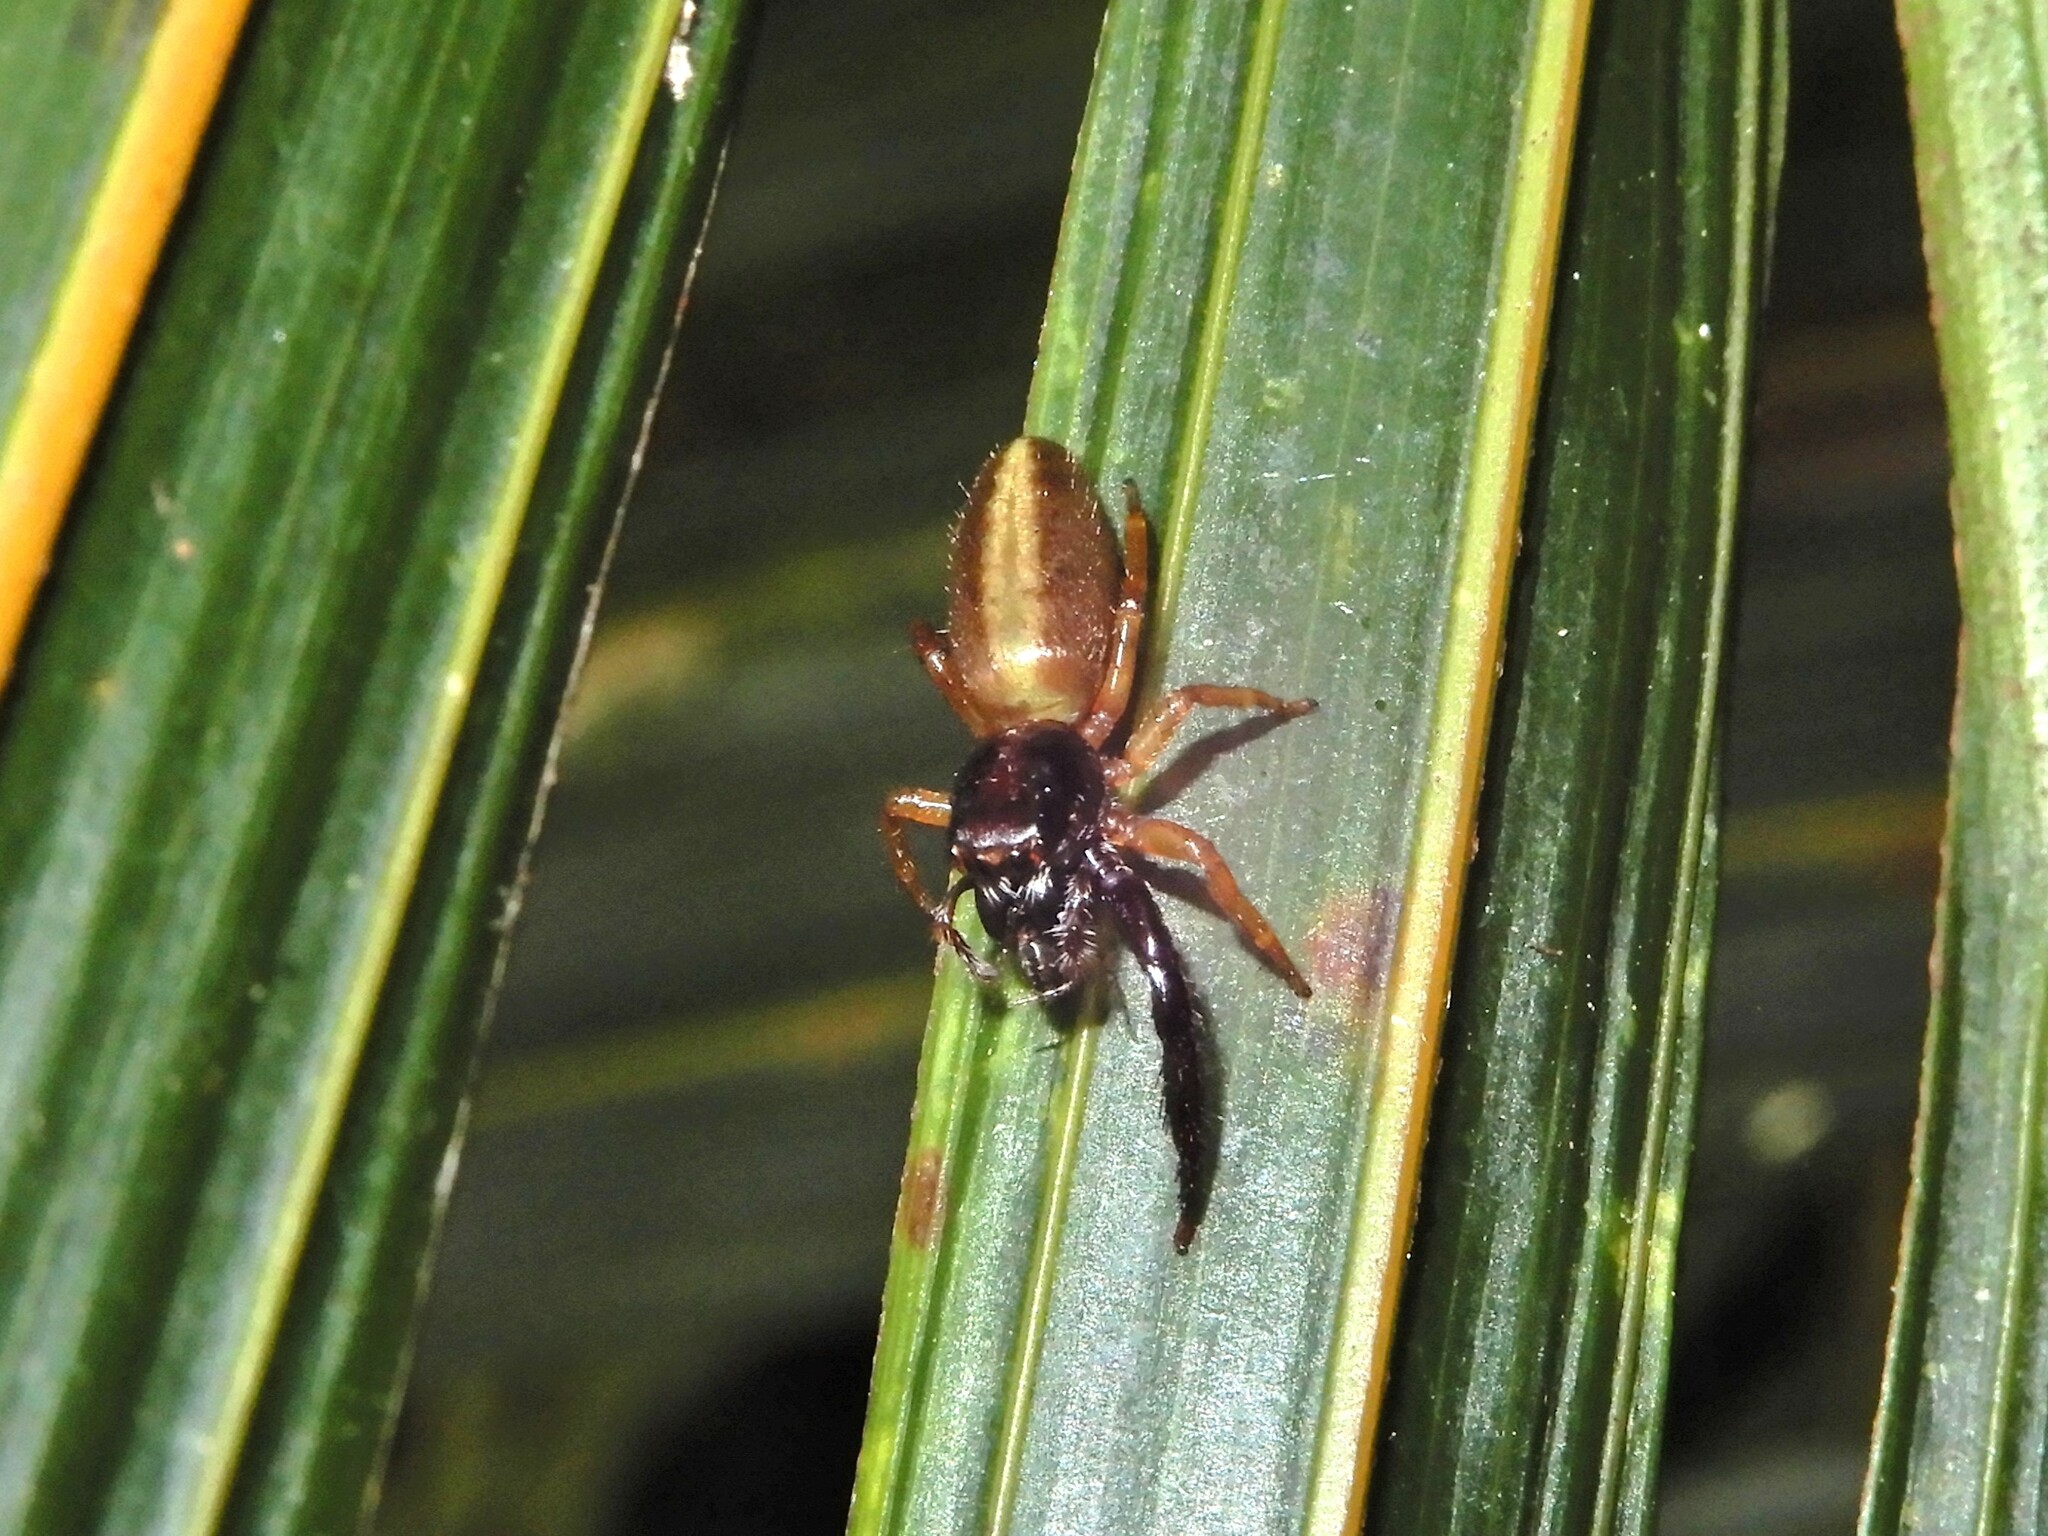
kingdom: Animalia
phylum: Arthropoda
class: Arachnida
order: Araneae
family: Salticidae
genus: Trite
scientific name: Trite planiceps
